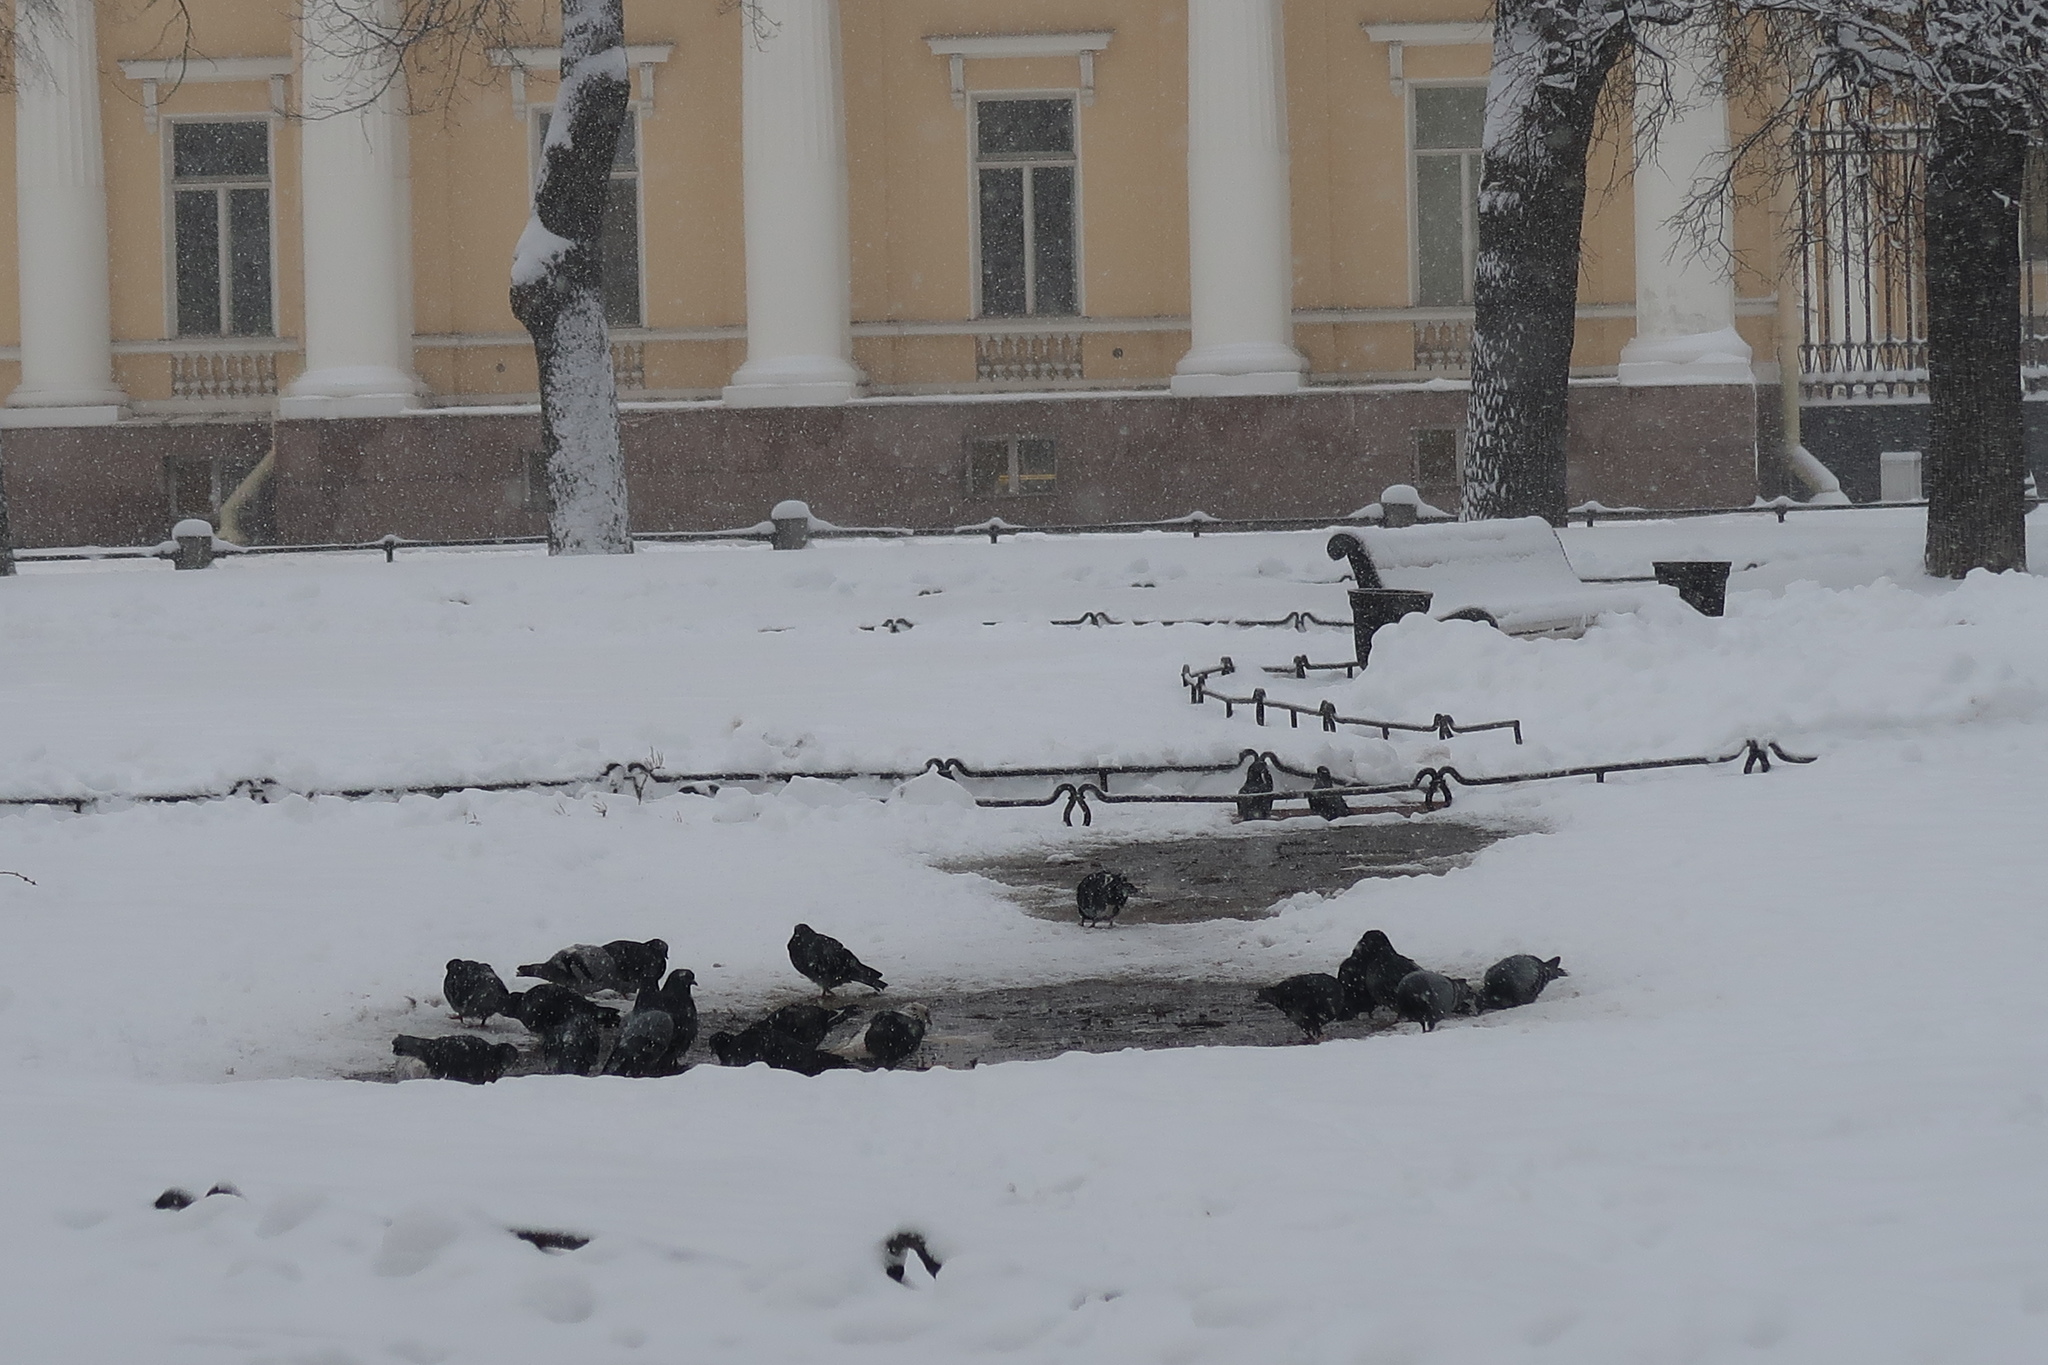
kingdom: Animalia
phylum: Chordata
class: Aves
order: Columbiformes
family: Columbidae
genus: Columba
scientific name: Columba livia
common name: Rock pigeon
